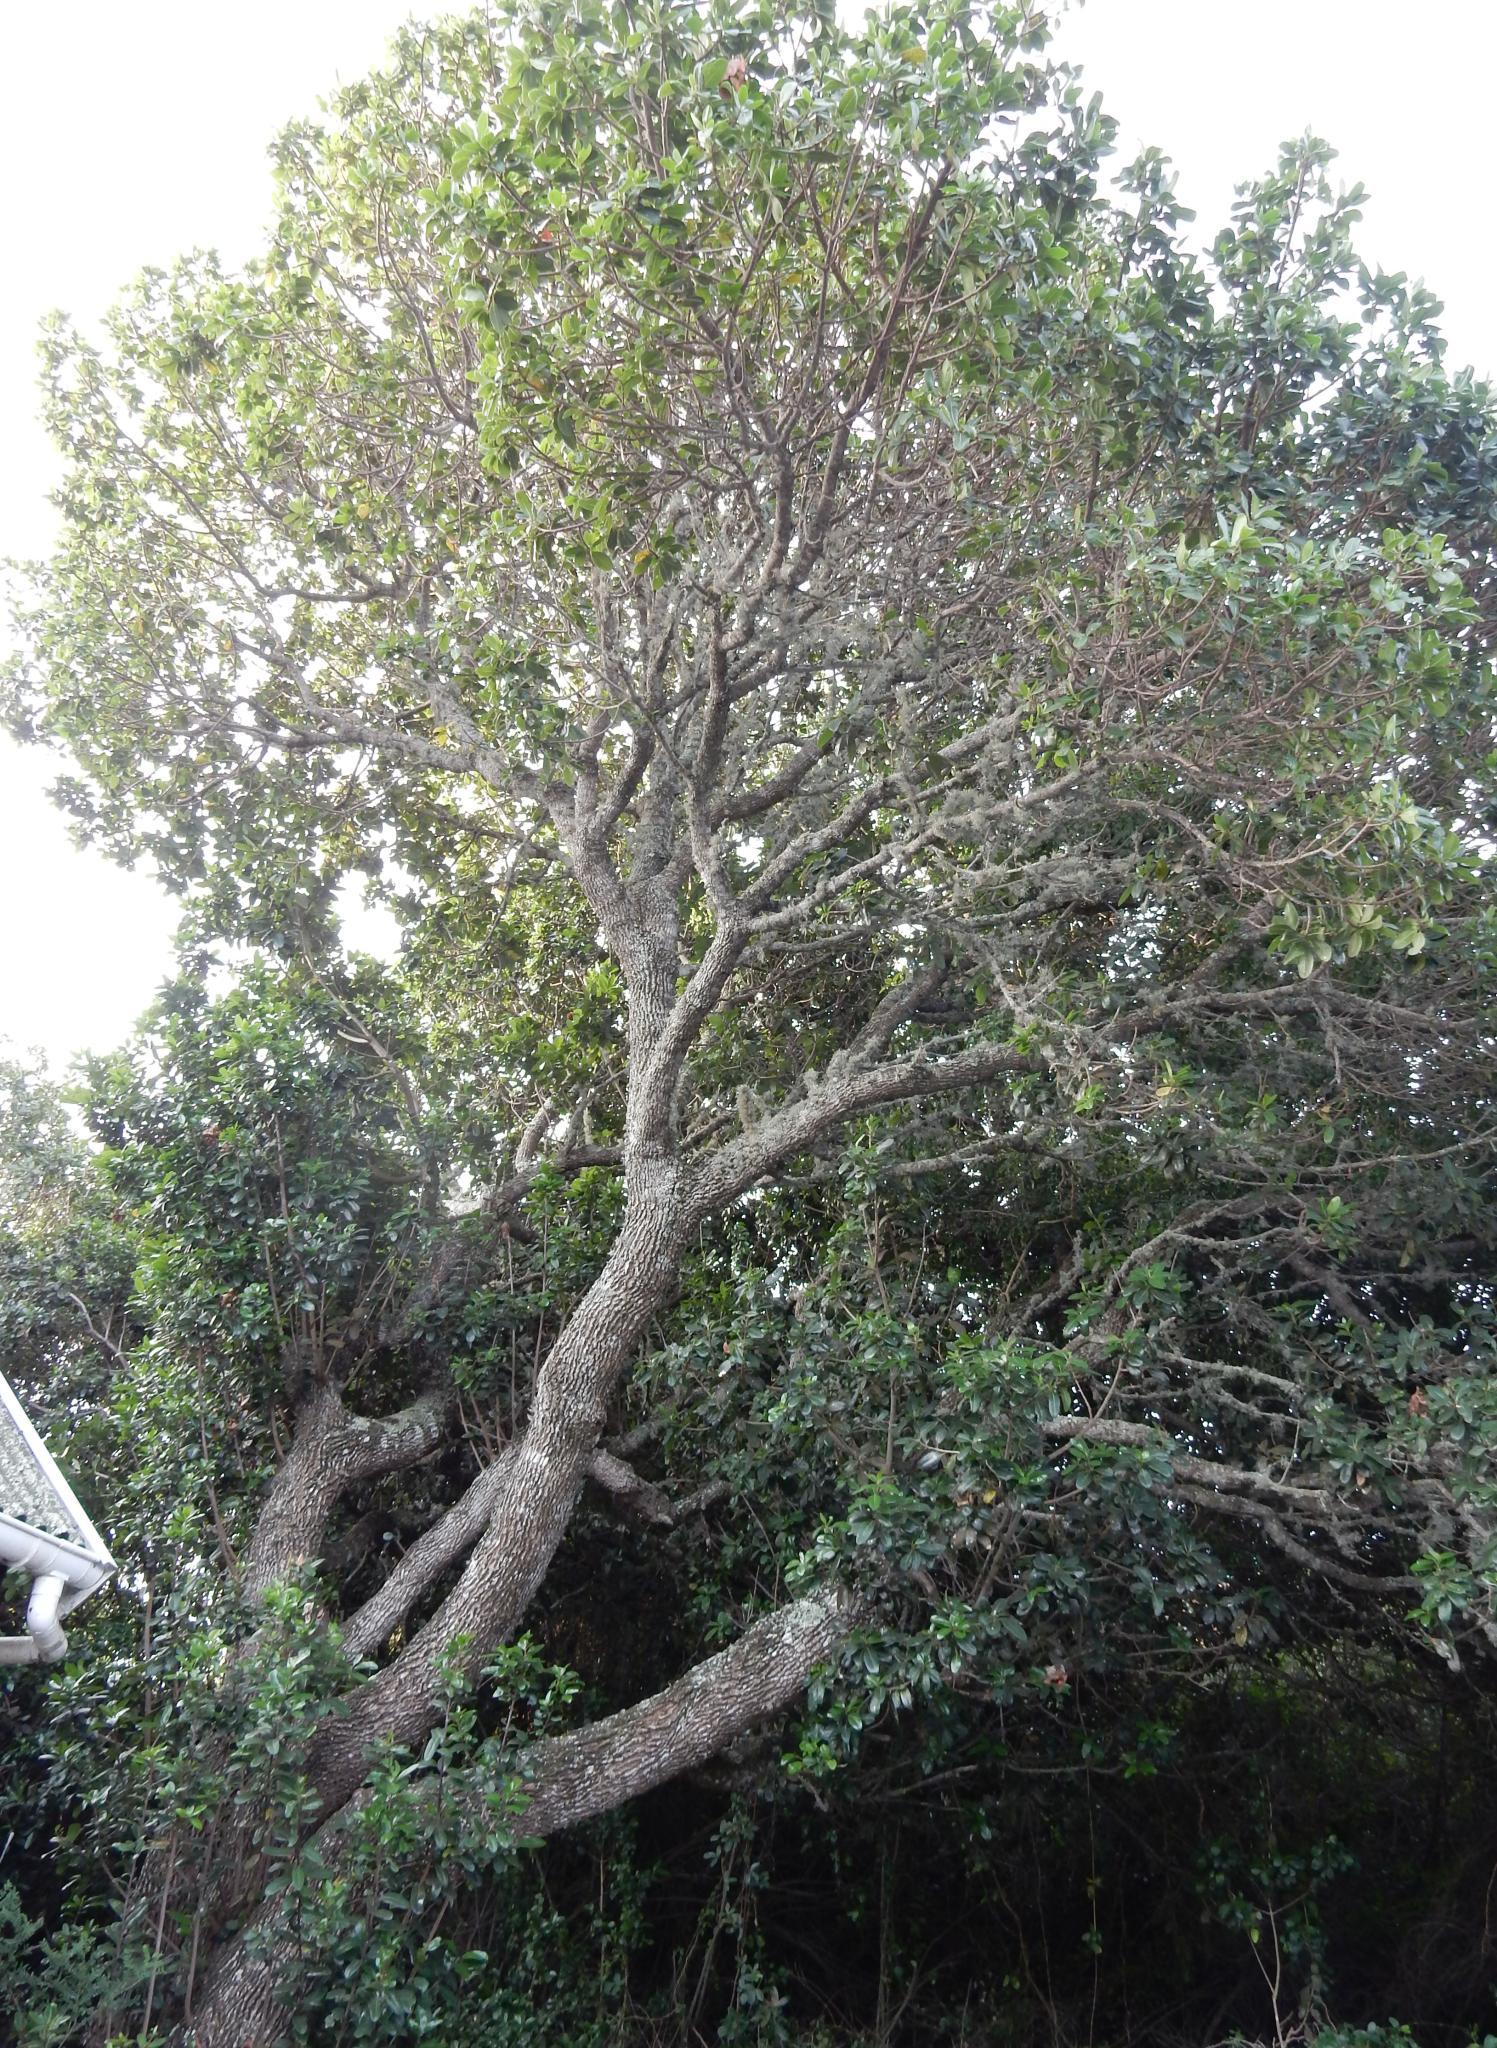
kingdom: Plantae
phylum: Tracheophyta
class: Magnoliopsida
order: Ericales
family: Sapotaceae
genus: Sideroxylon
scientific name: Sideroxylon inerme
